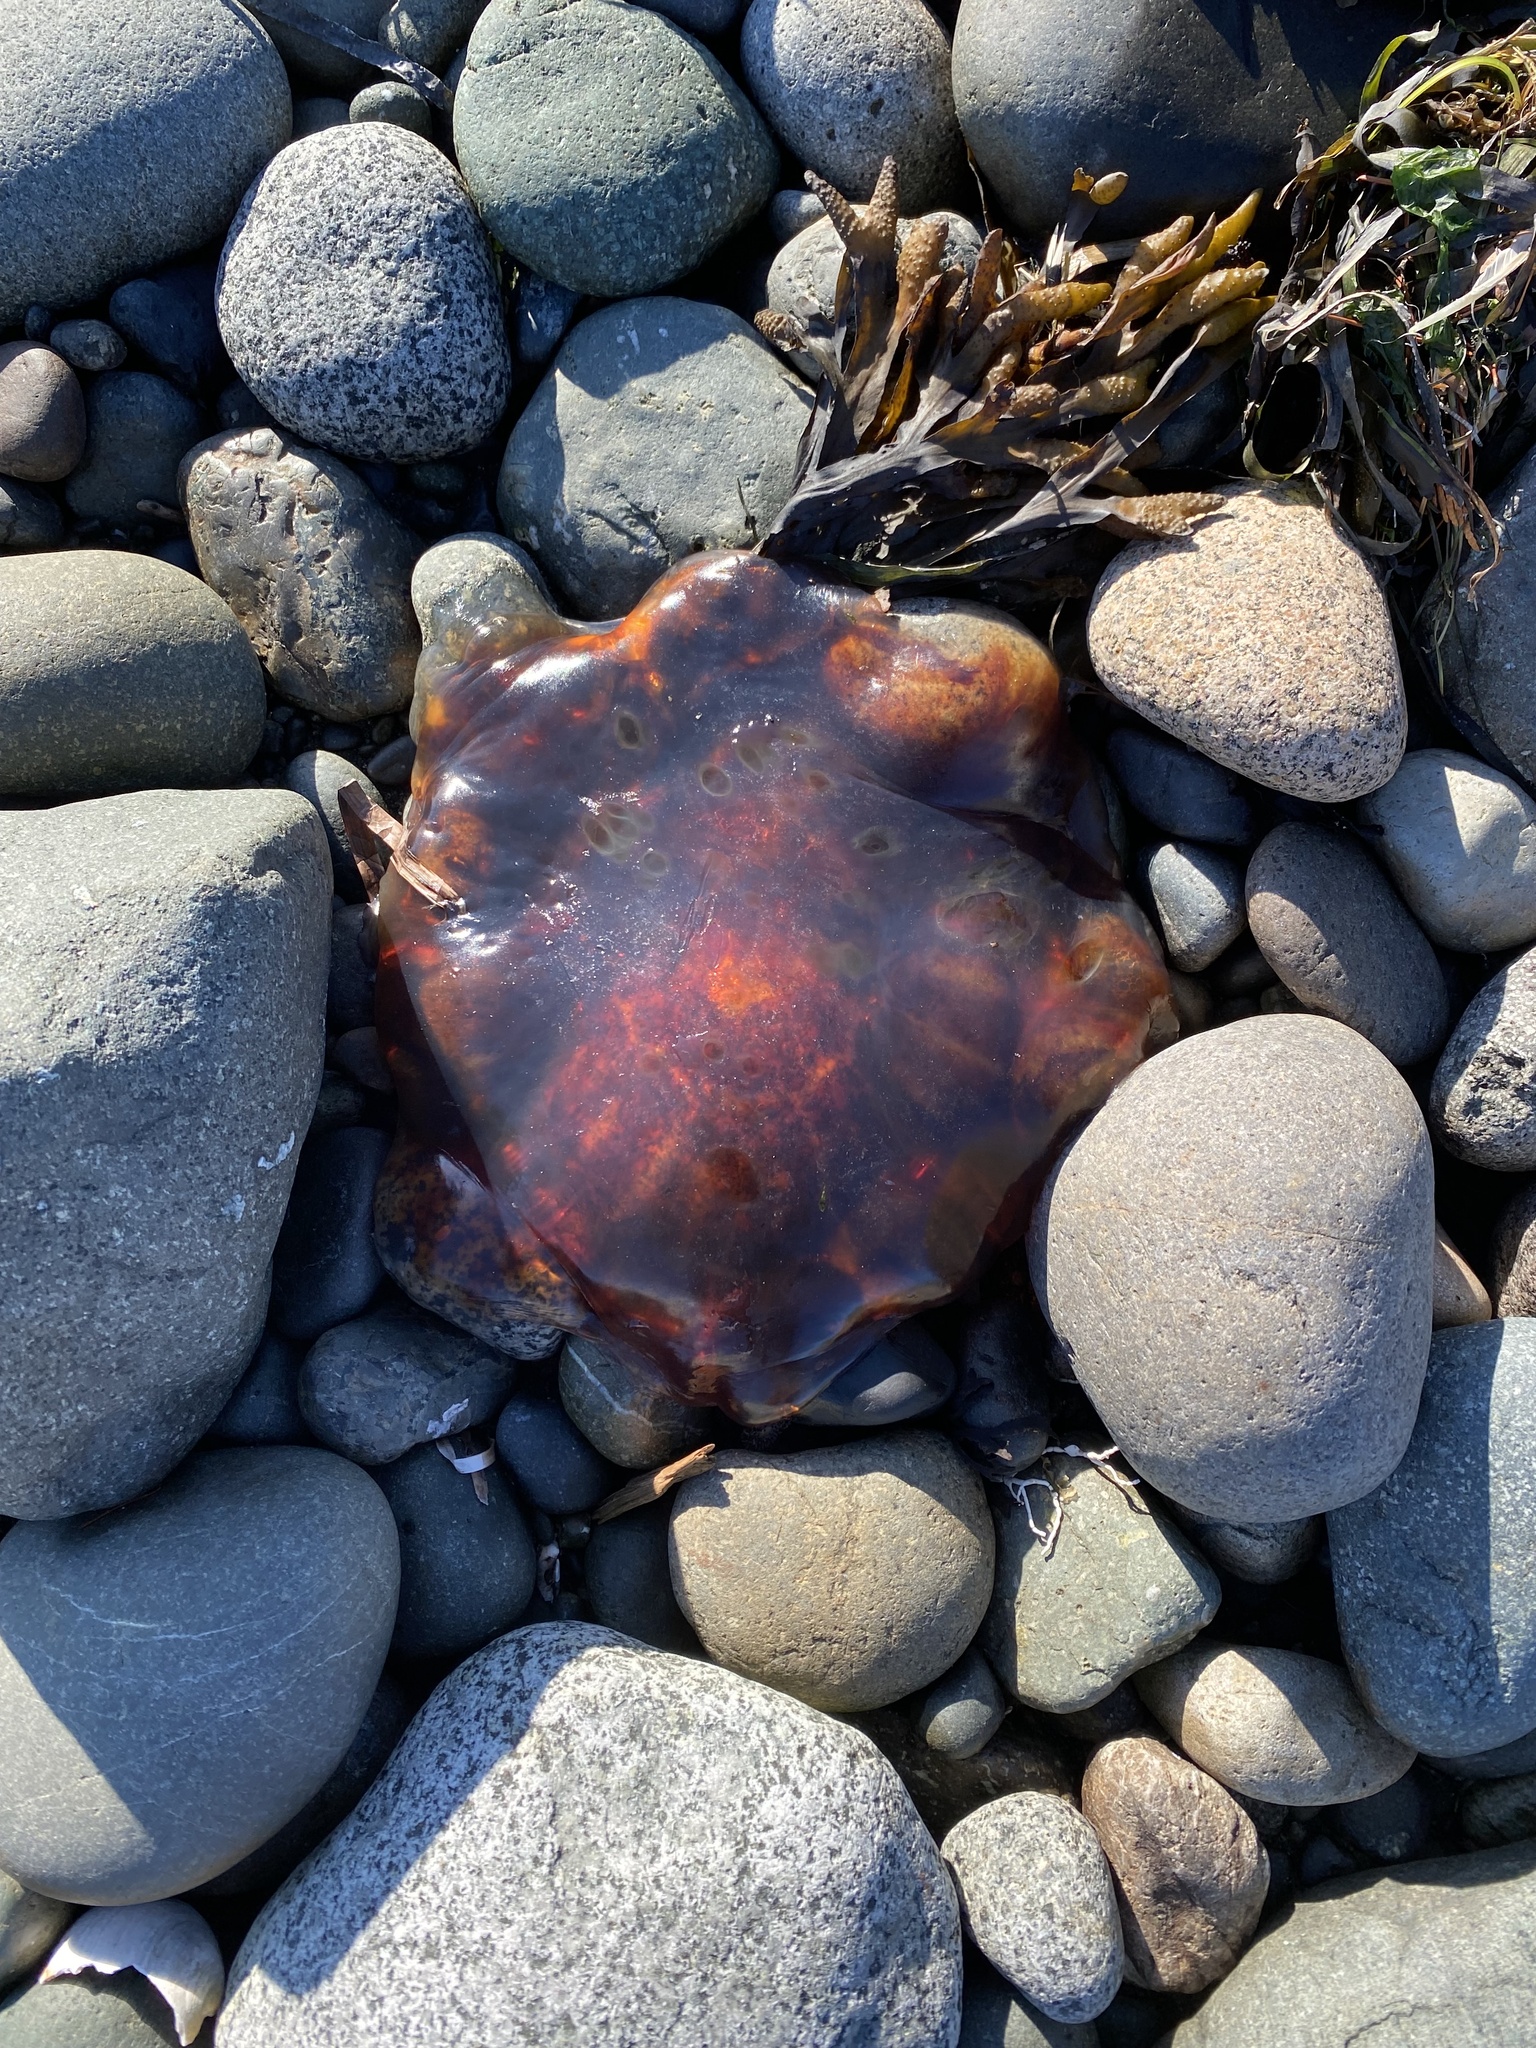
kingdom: Animalia
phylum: Cnidaria
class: Scyphozoa
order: Semaeostomeae
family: Cyaneidae
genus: Cyanea
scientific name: Cyanea ferruginea
